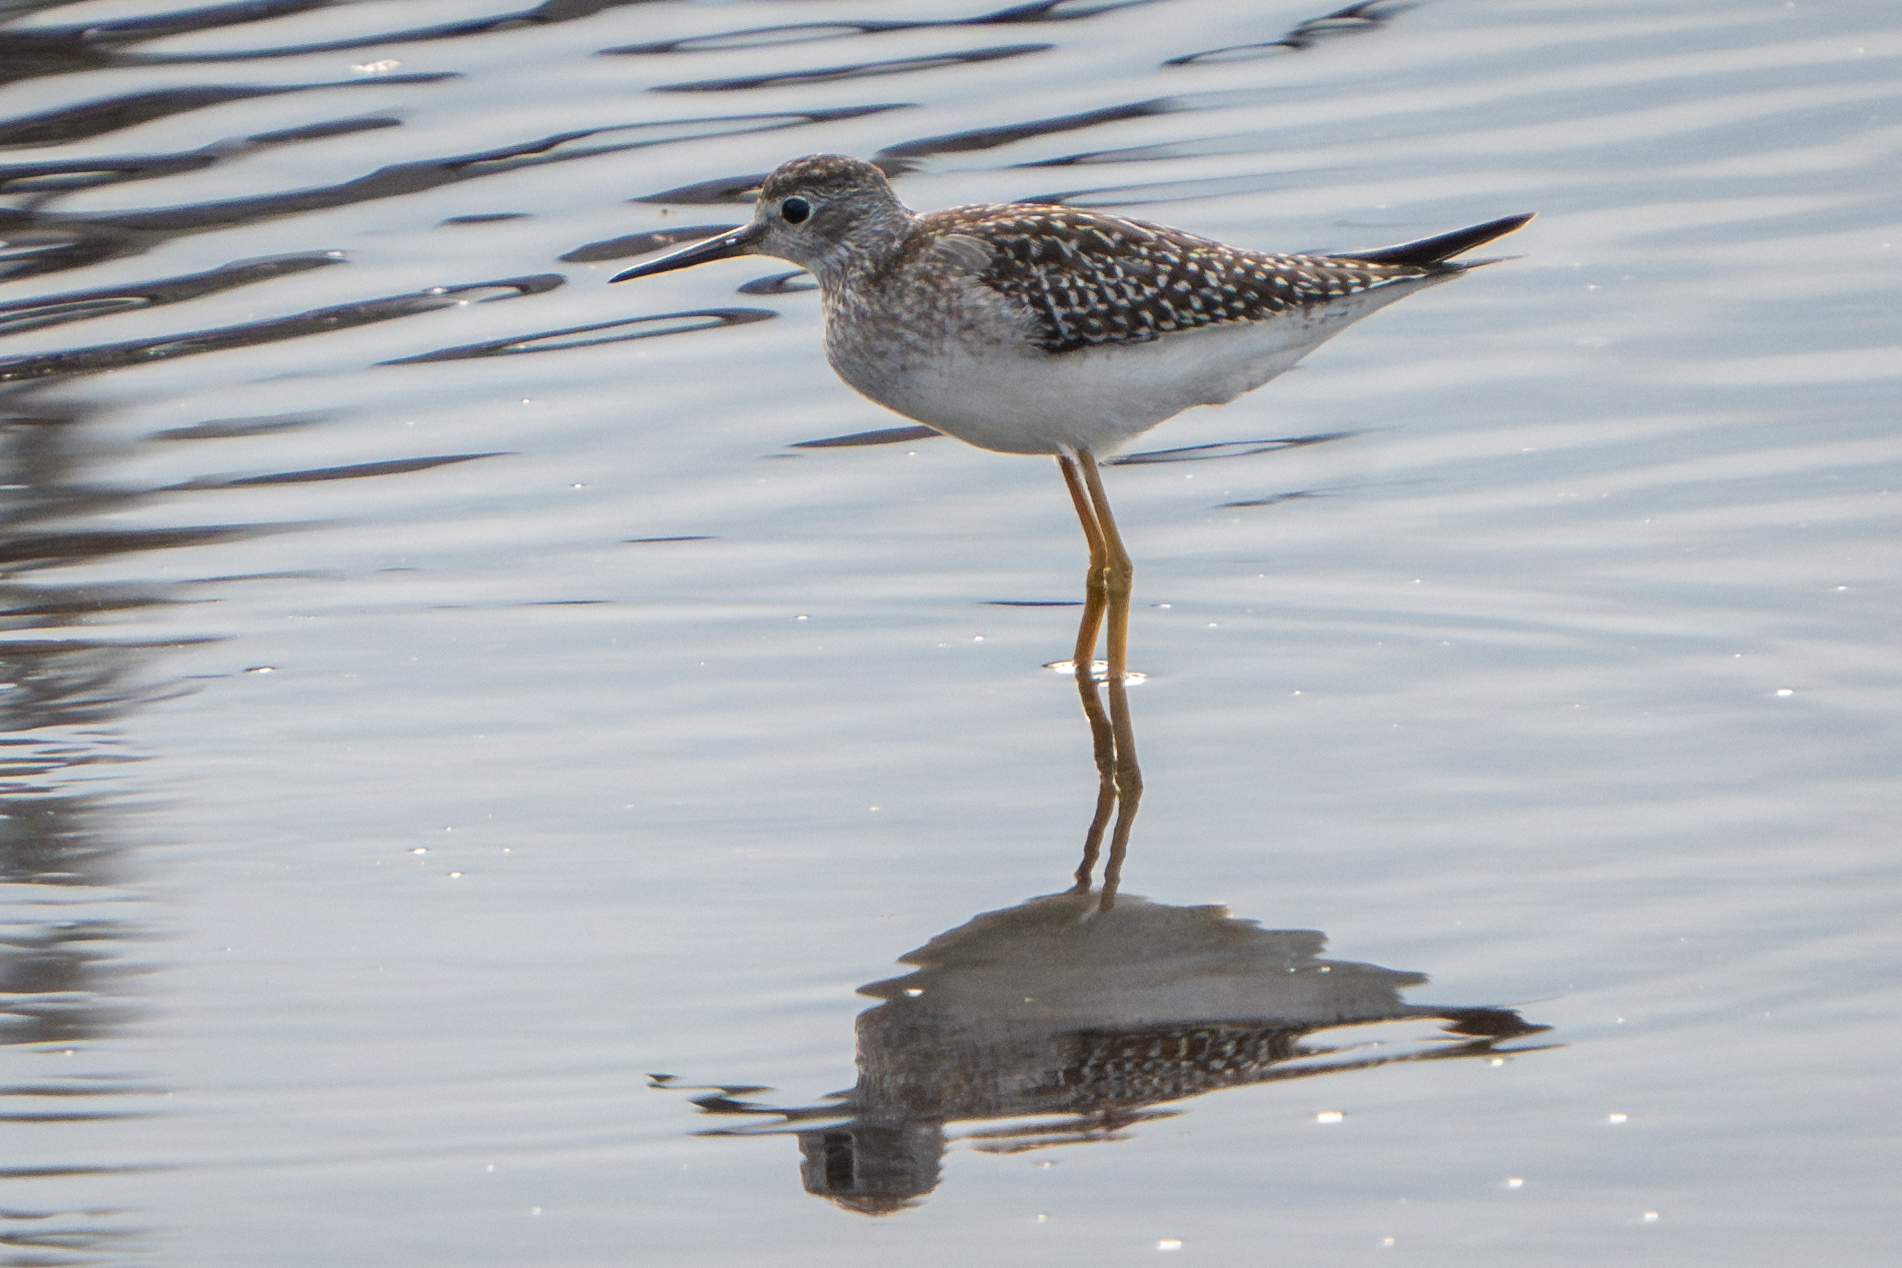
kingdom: Animalia
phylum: Chordata
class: Aves
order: Charadriiformes
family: Scolopacidae
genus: Tringa
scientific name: Tringa flavipes
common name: Lesser yellowlegs
